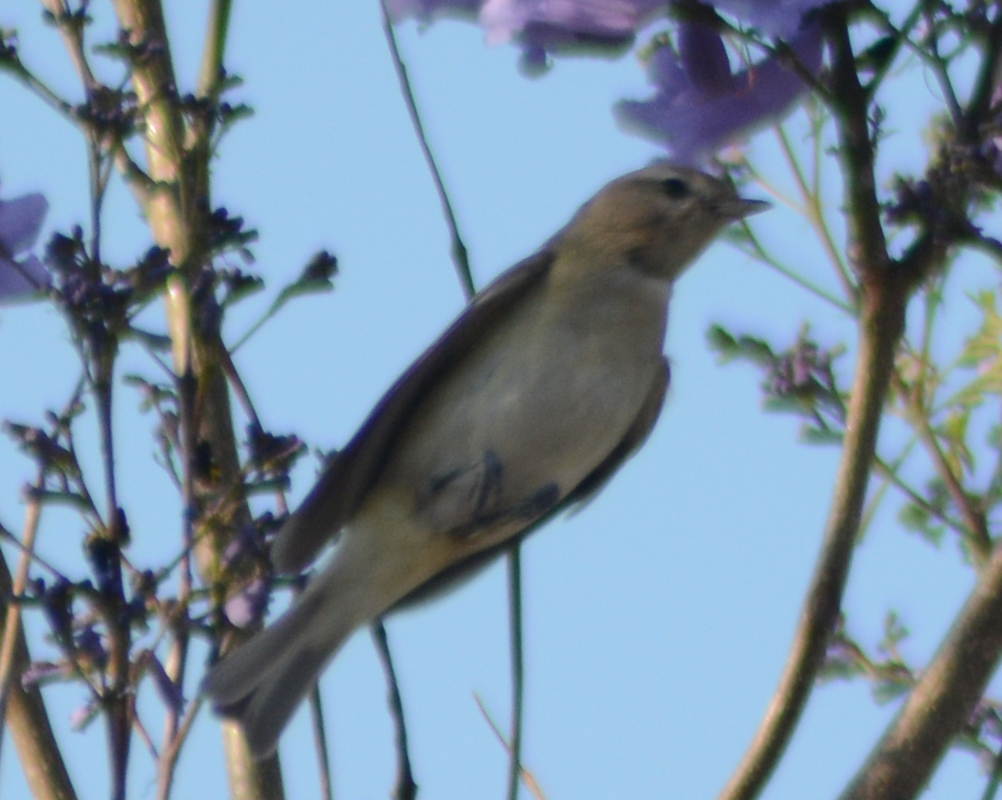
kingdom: Animalia
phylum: Chordata
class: Aves
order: Passeriformes
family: Vireonidae
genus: Vireo
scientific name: Vireo gilvus
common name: Warbling vireo
